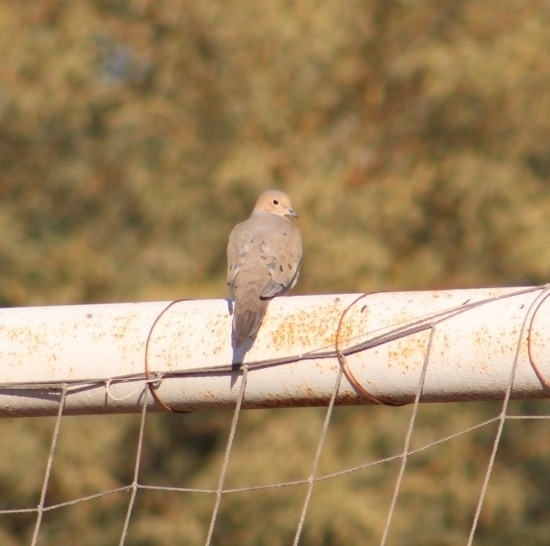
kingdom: Animalia
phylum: Chordata
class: Aves
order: Columbiformes
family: Columbidae
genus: Zenaida
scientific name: Zenaida macroura
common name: Mourning dove
